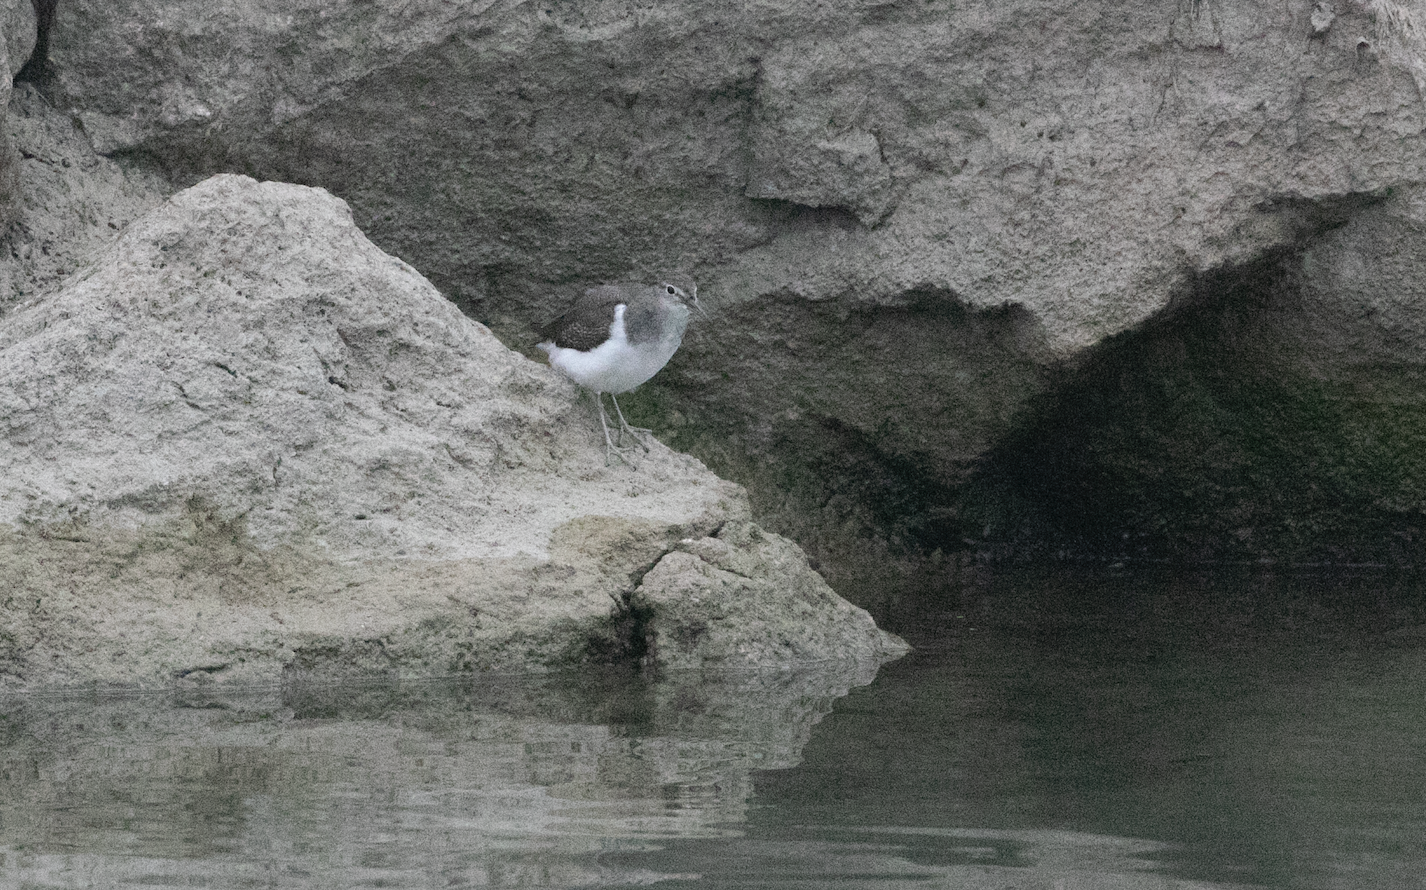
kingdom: Animalia
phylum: Chordata
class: Aves
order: Charadriiformes
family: Scolopacidae
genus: Actitis
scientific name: Actitis hypoleucos
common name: Common sandpiper
